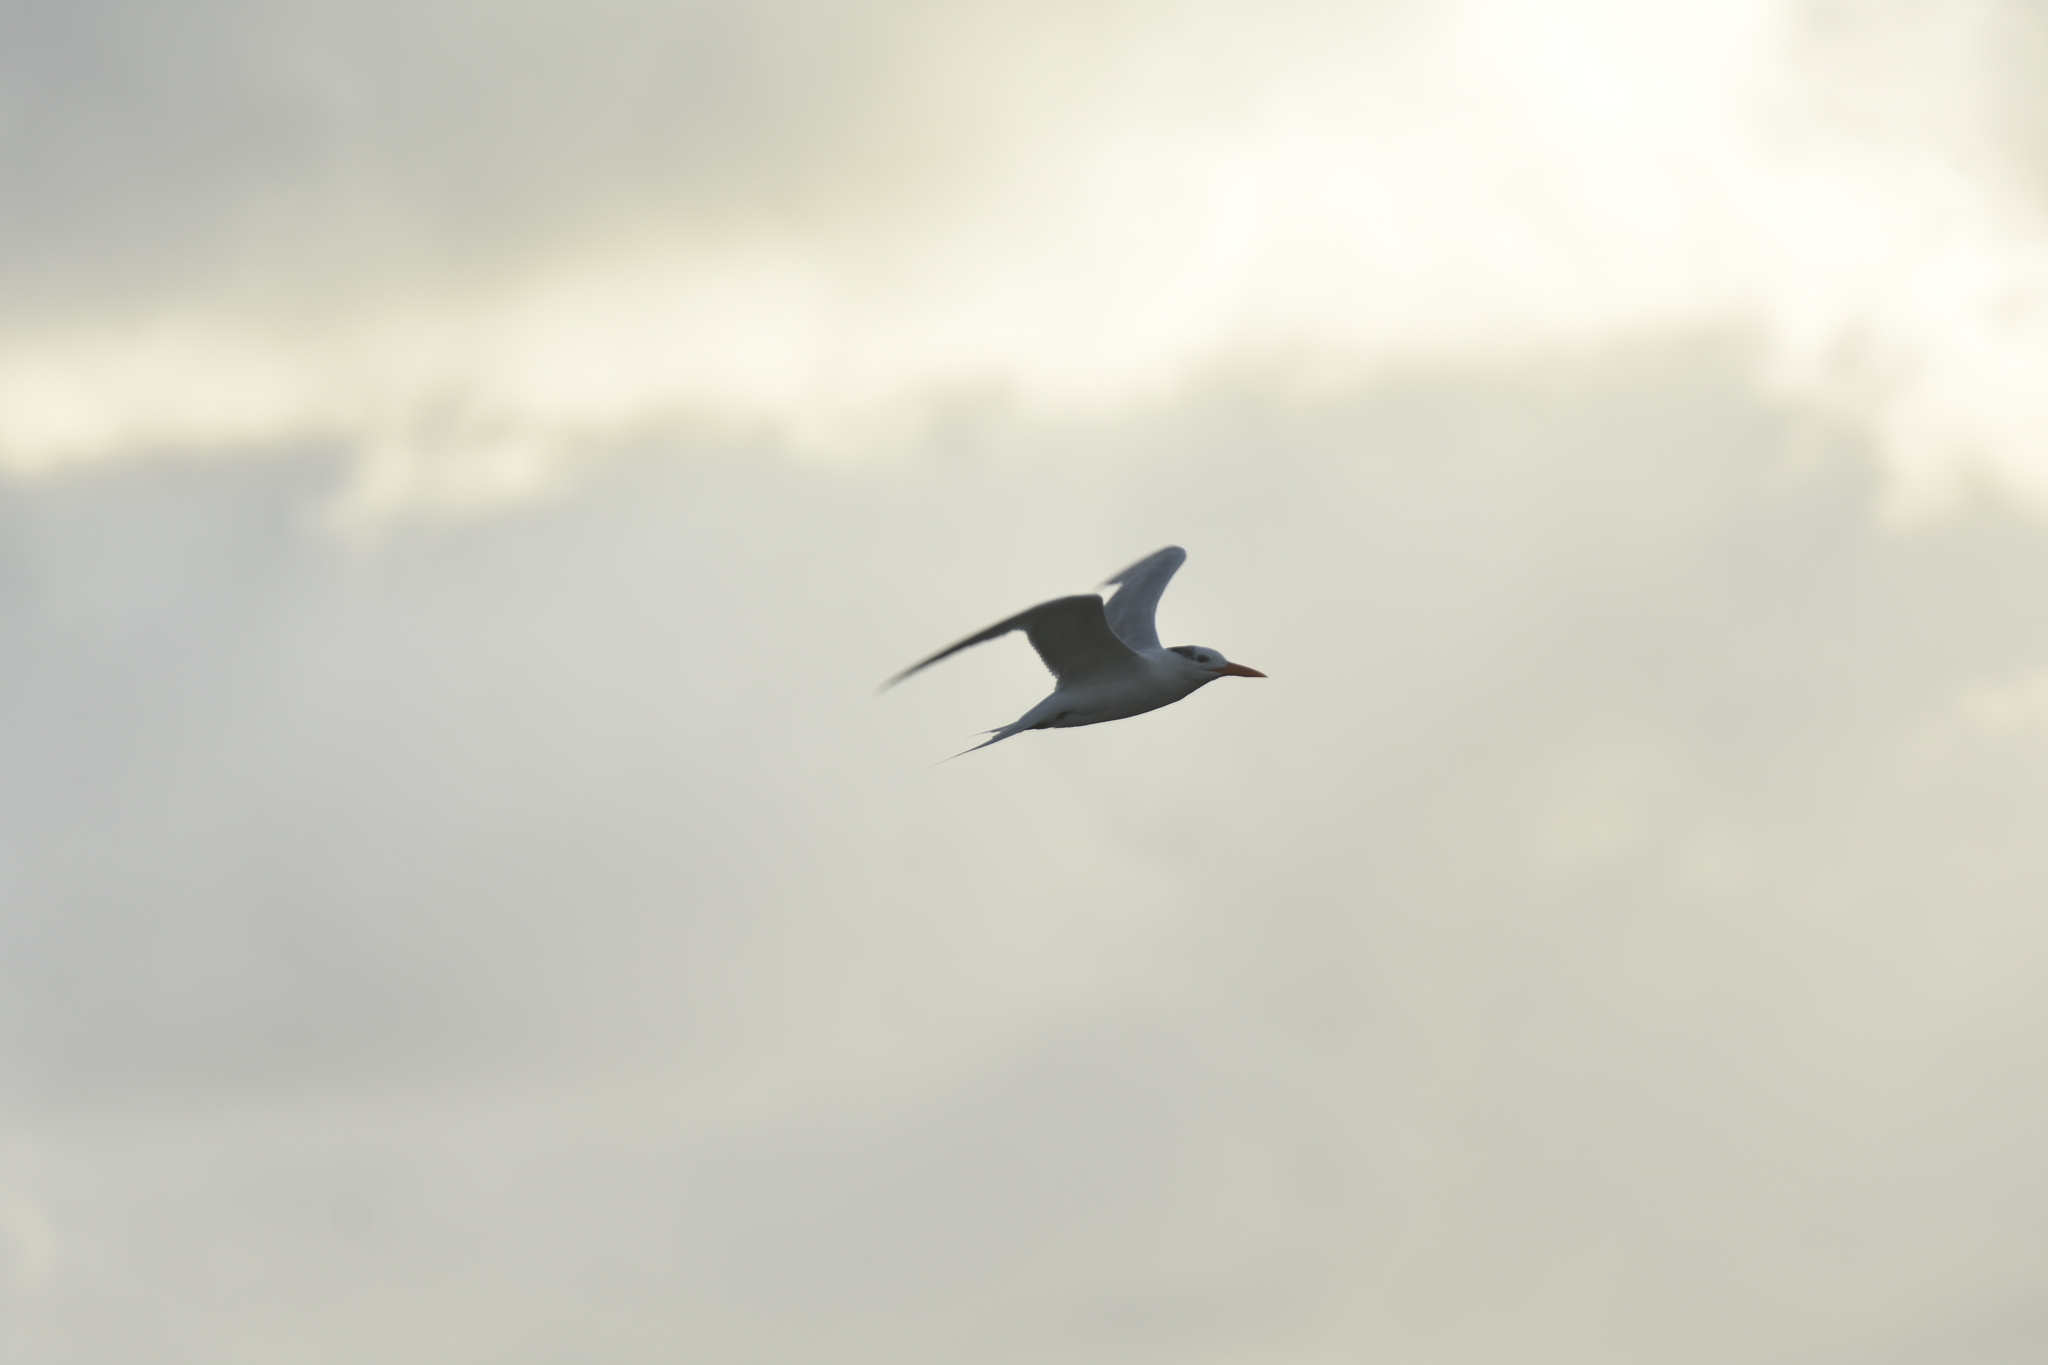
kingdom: Animalia
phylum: Chordata
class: Aves
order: Charadriiformes
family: Laridae
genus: Thalasseus
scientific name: Thalasseus maximus
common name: Royal tern
